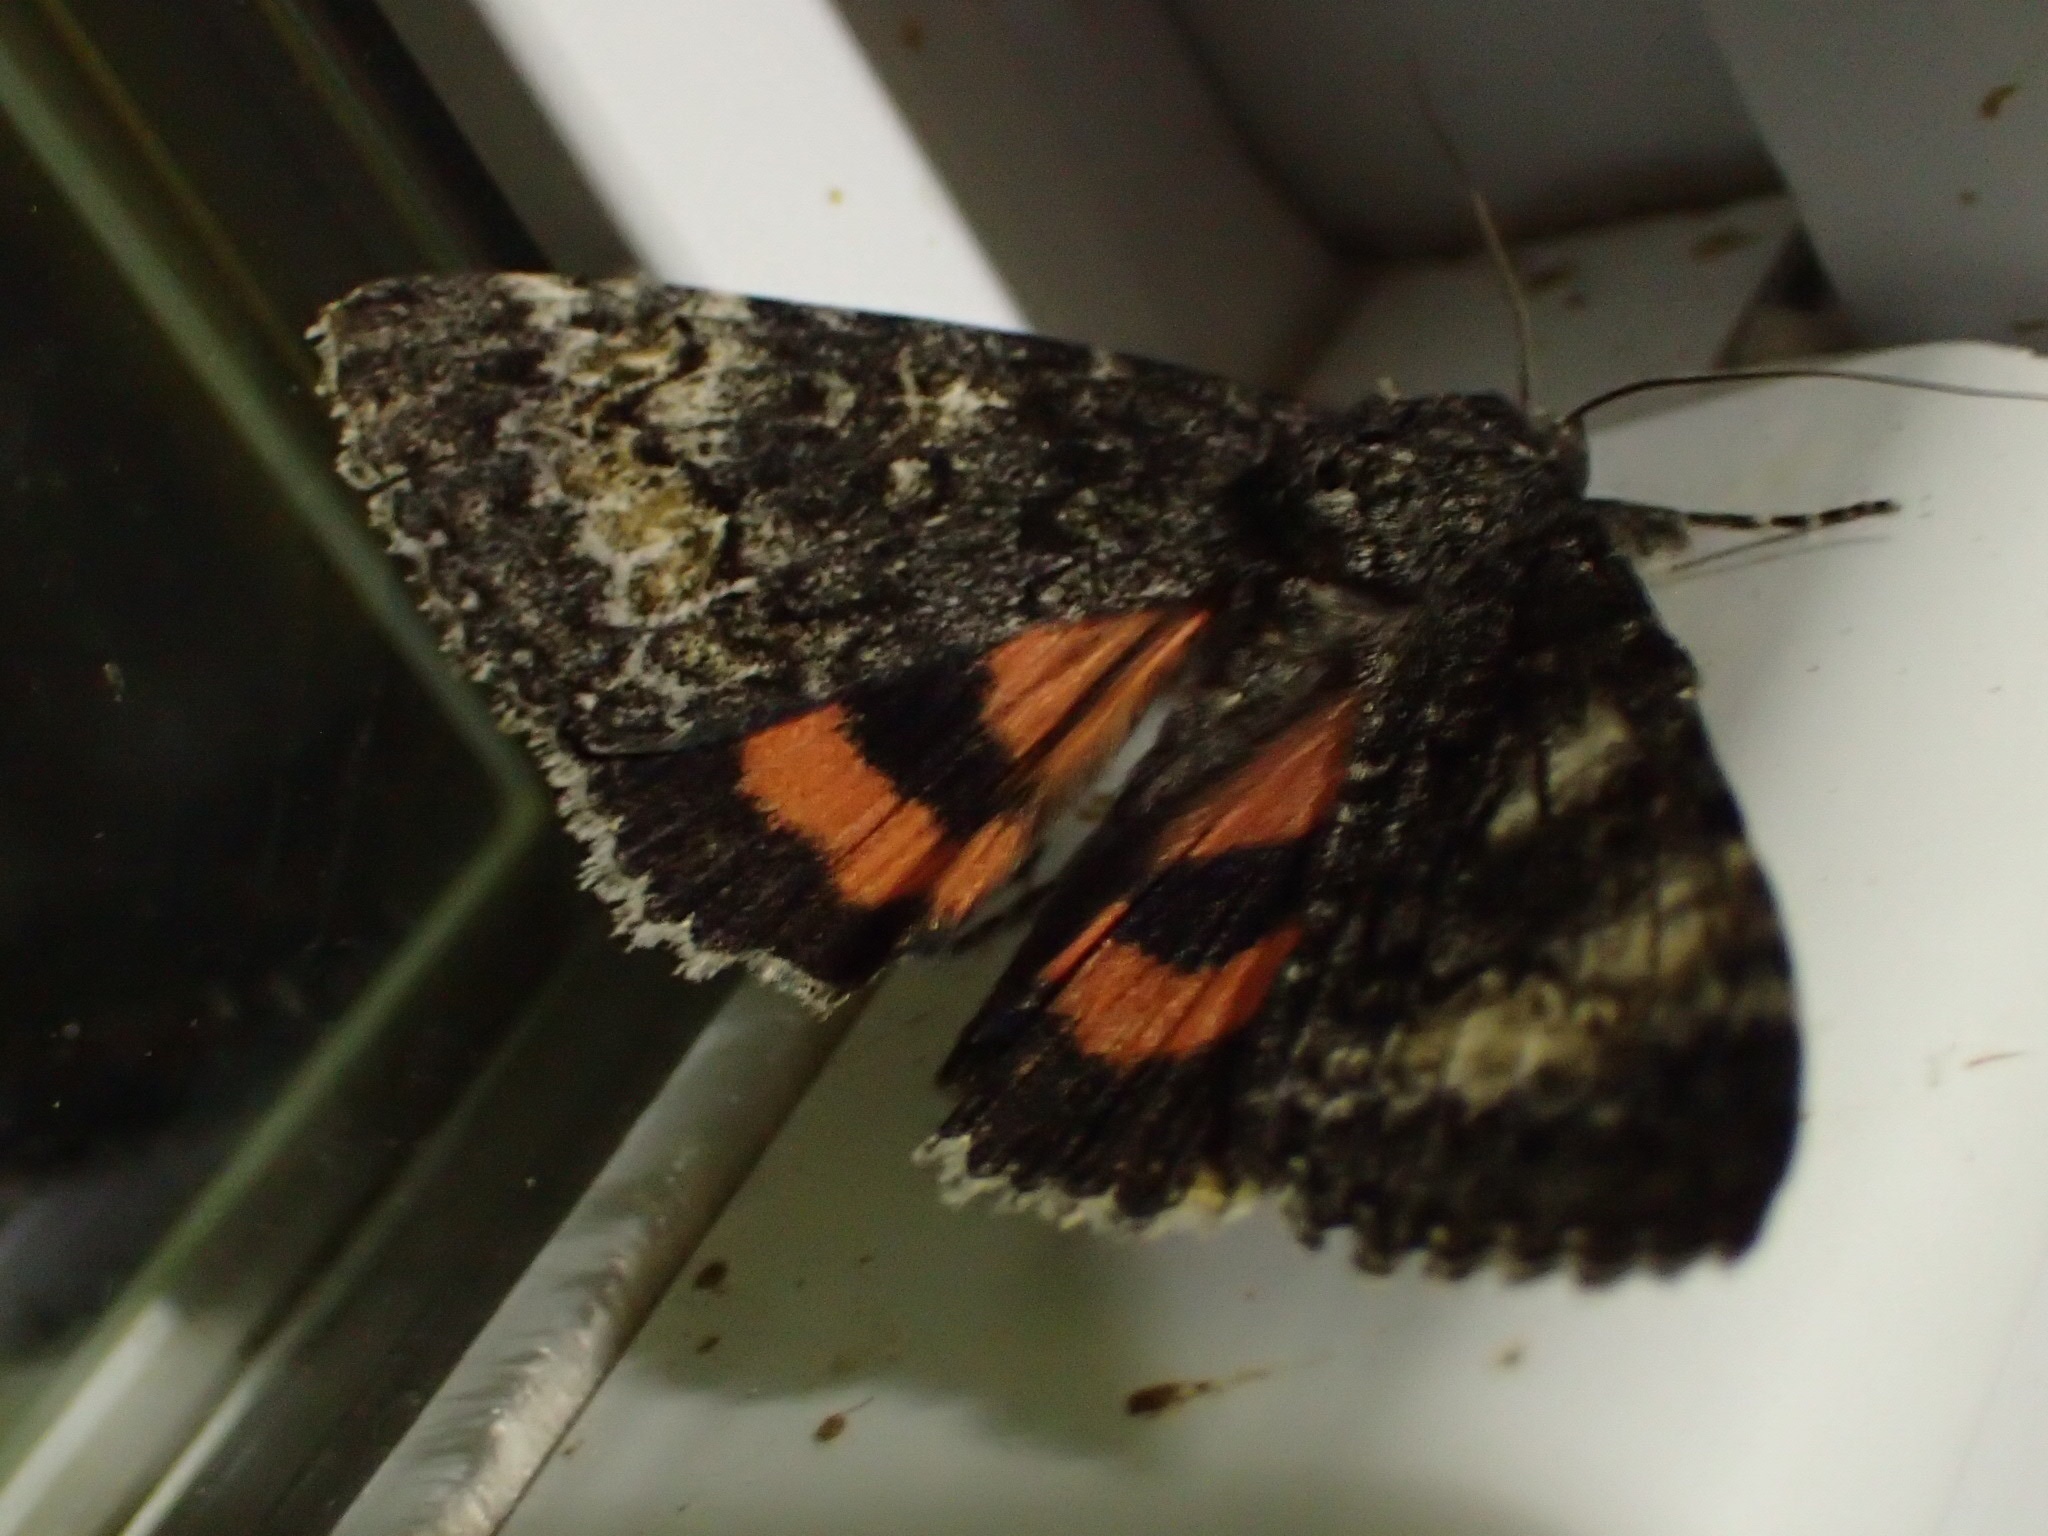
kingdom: Animalia
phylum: Arthropoda
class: Insecta
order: Lepidoptera
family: Erebidae
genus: Catocala
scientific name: Catocala briseis
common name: Briseis underwing
